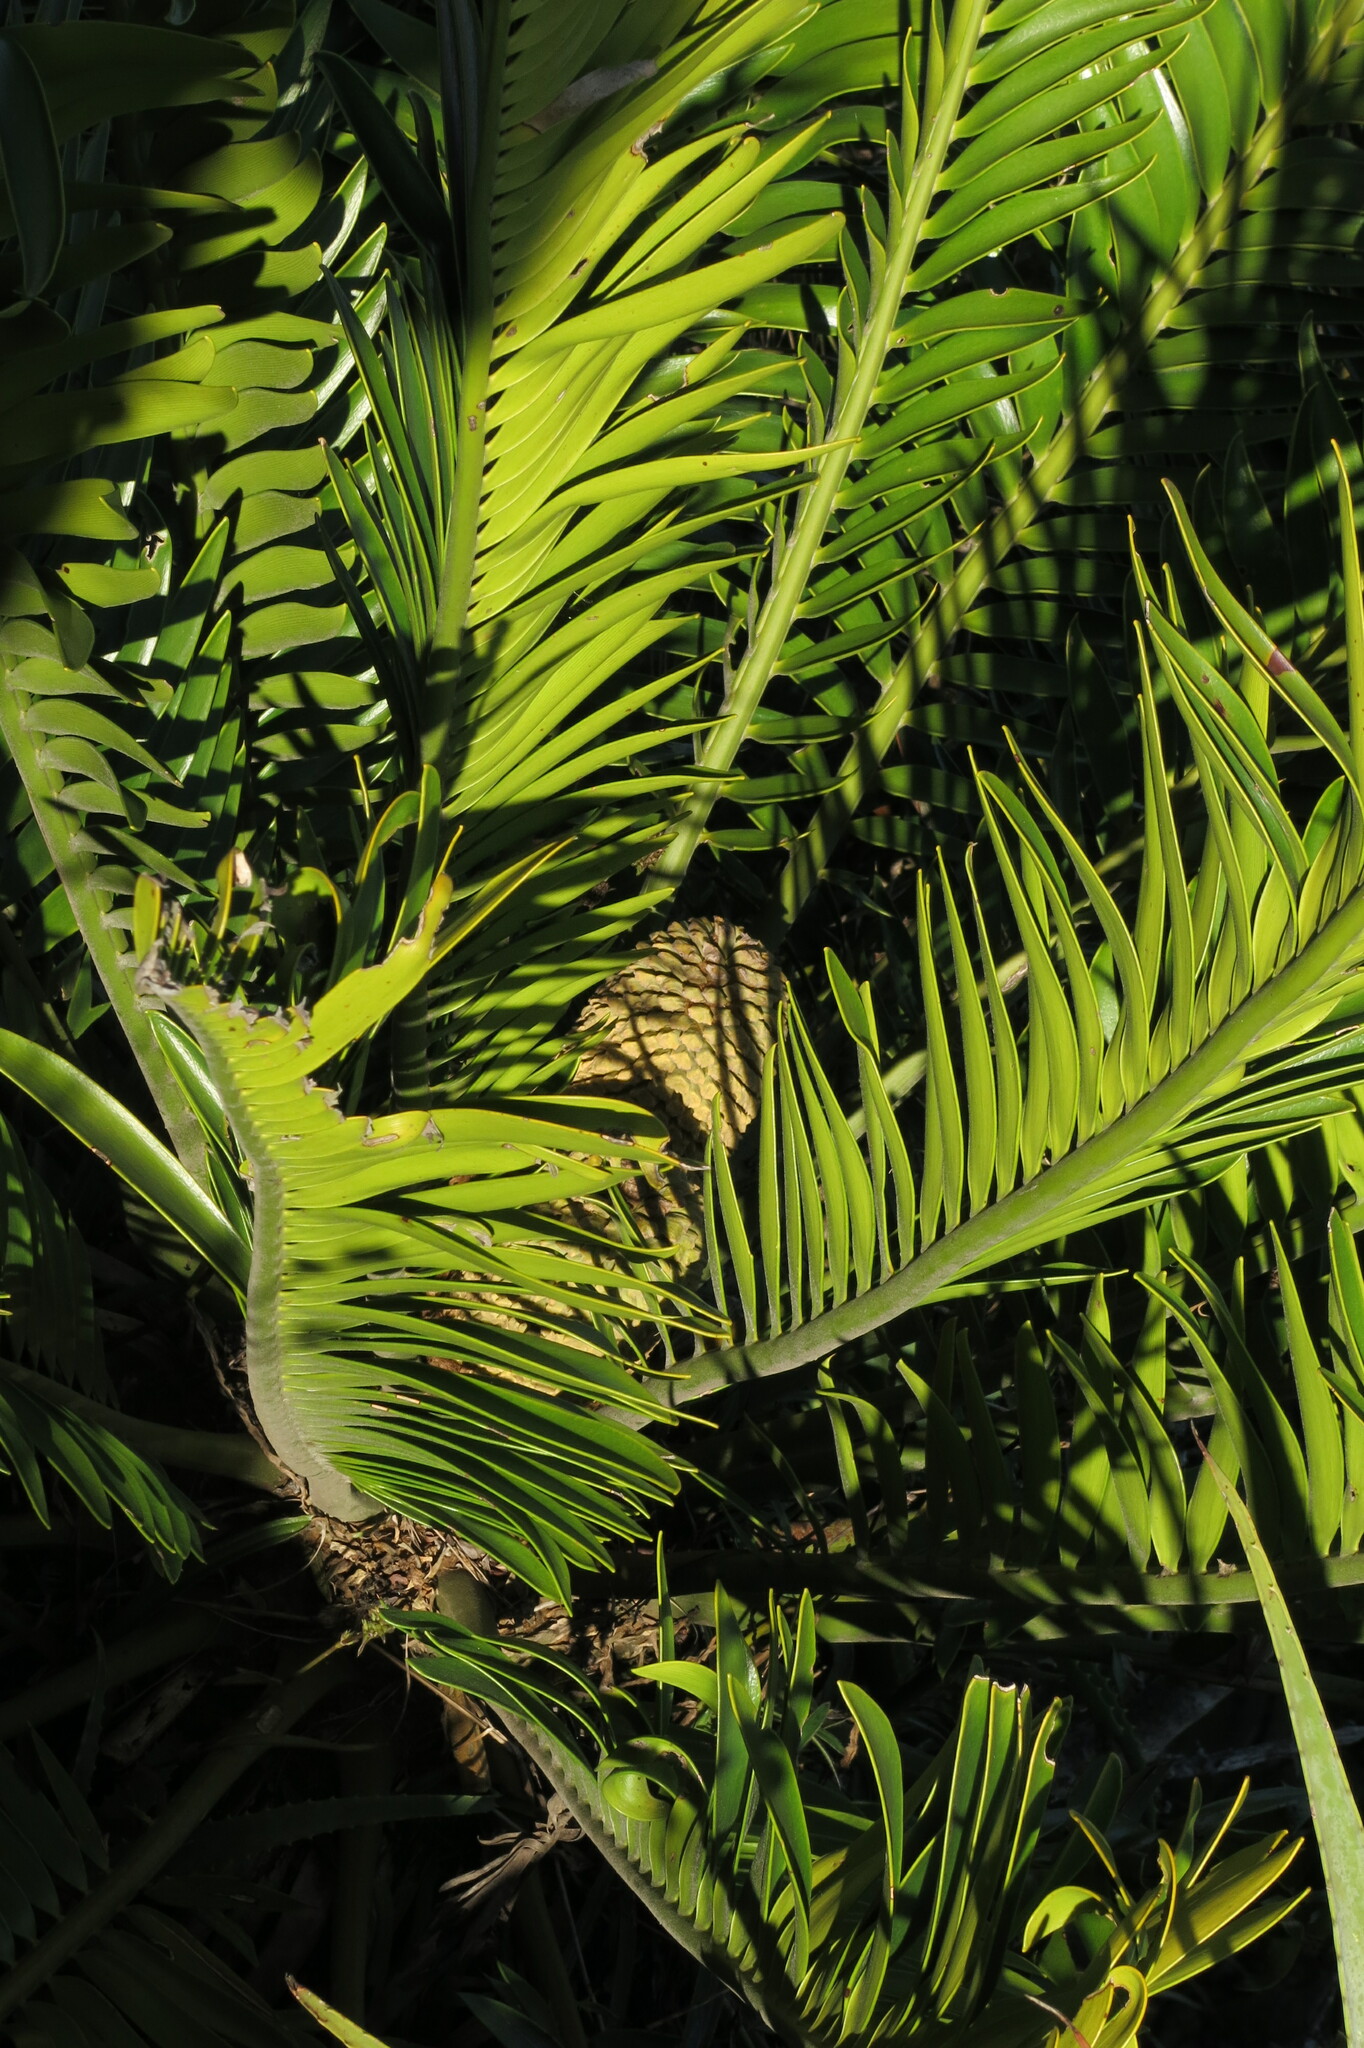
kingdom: Plantae
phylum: Tracheophyta
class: Cycadopsida
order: Cycadales
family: Zamiaceae
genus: Encephalartos
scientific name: Encephalartos natalensis
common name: Natal cycad
